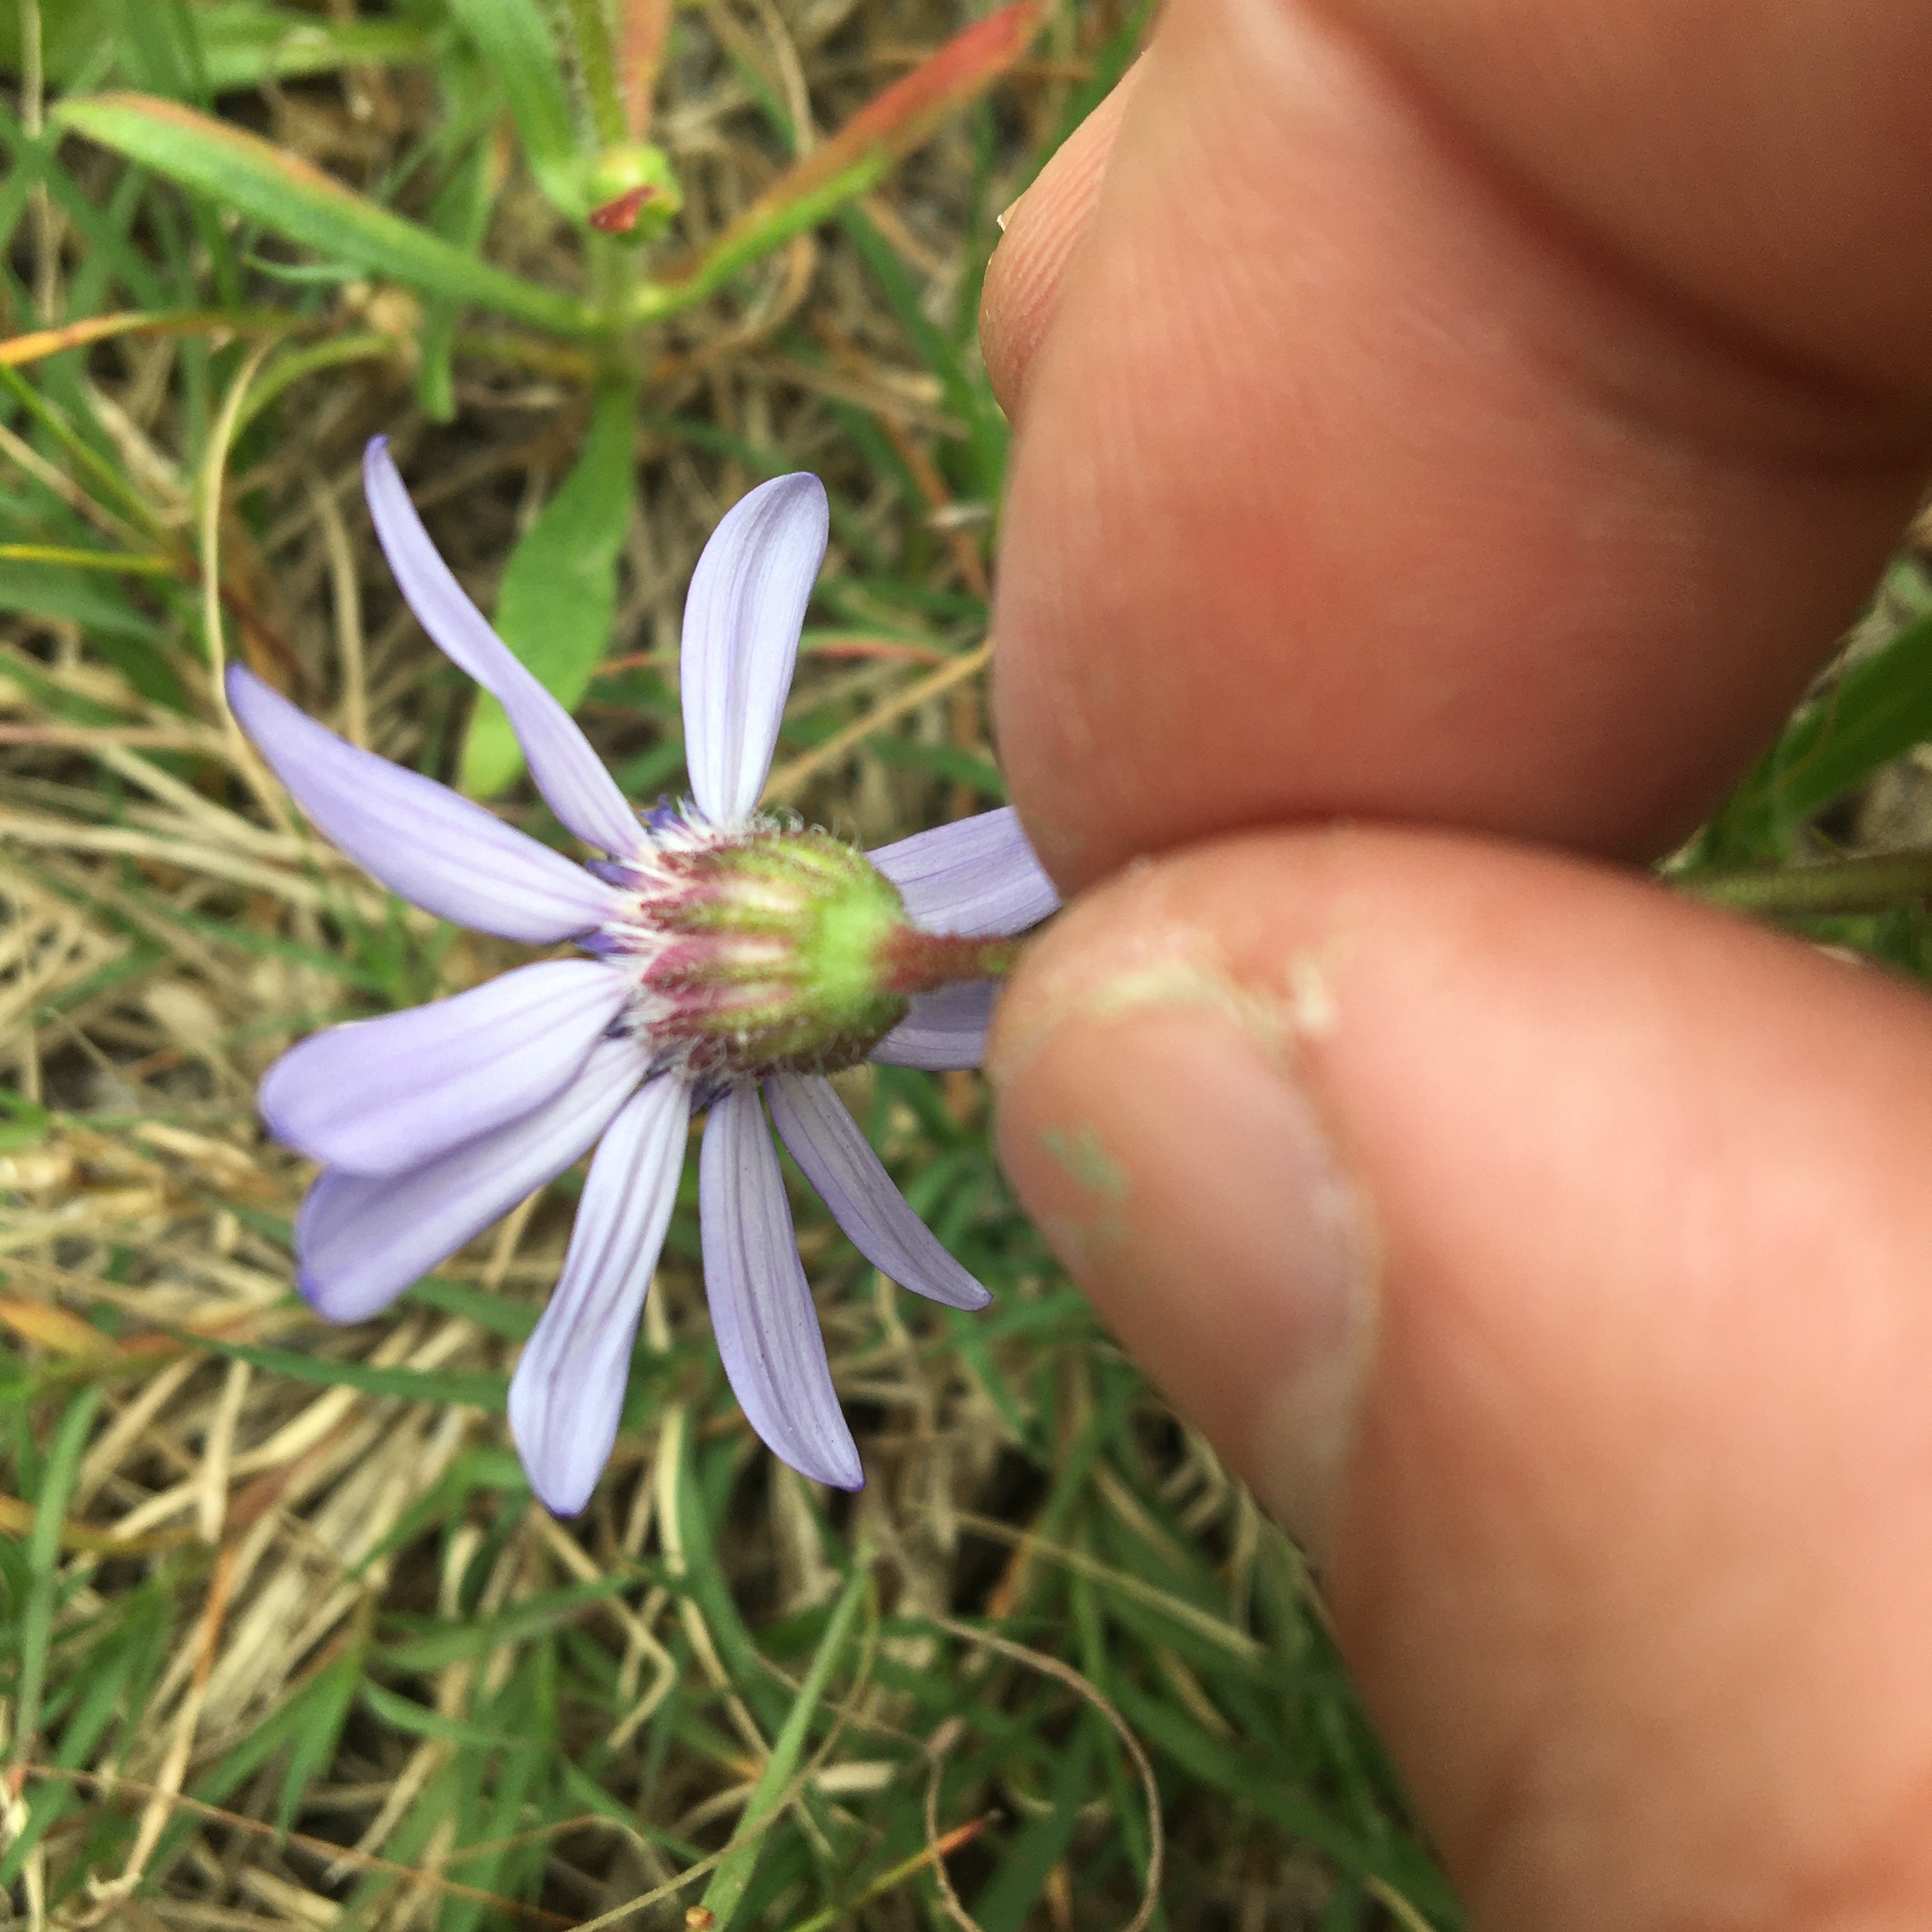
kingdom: Plantae
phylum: Tracheophyta
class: Magnoliopsida
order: Asterales
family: Asteraceae
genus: Felicia
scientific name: Felicia heterophylla
